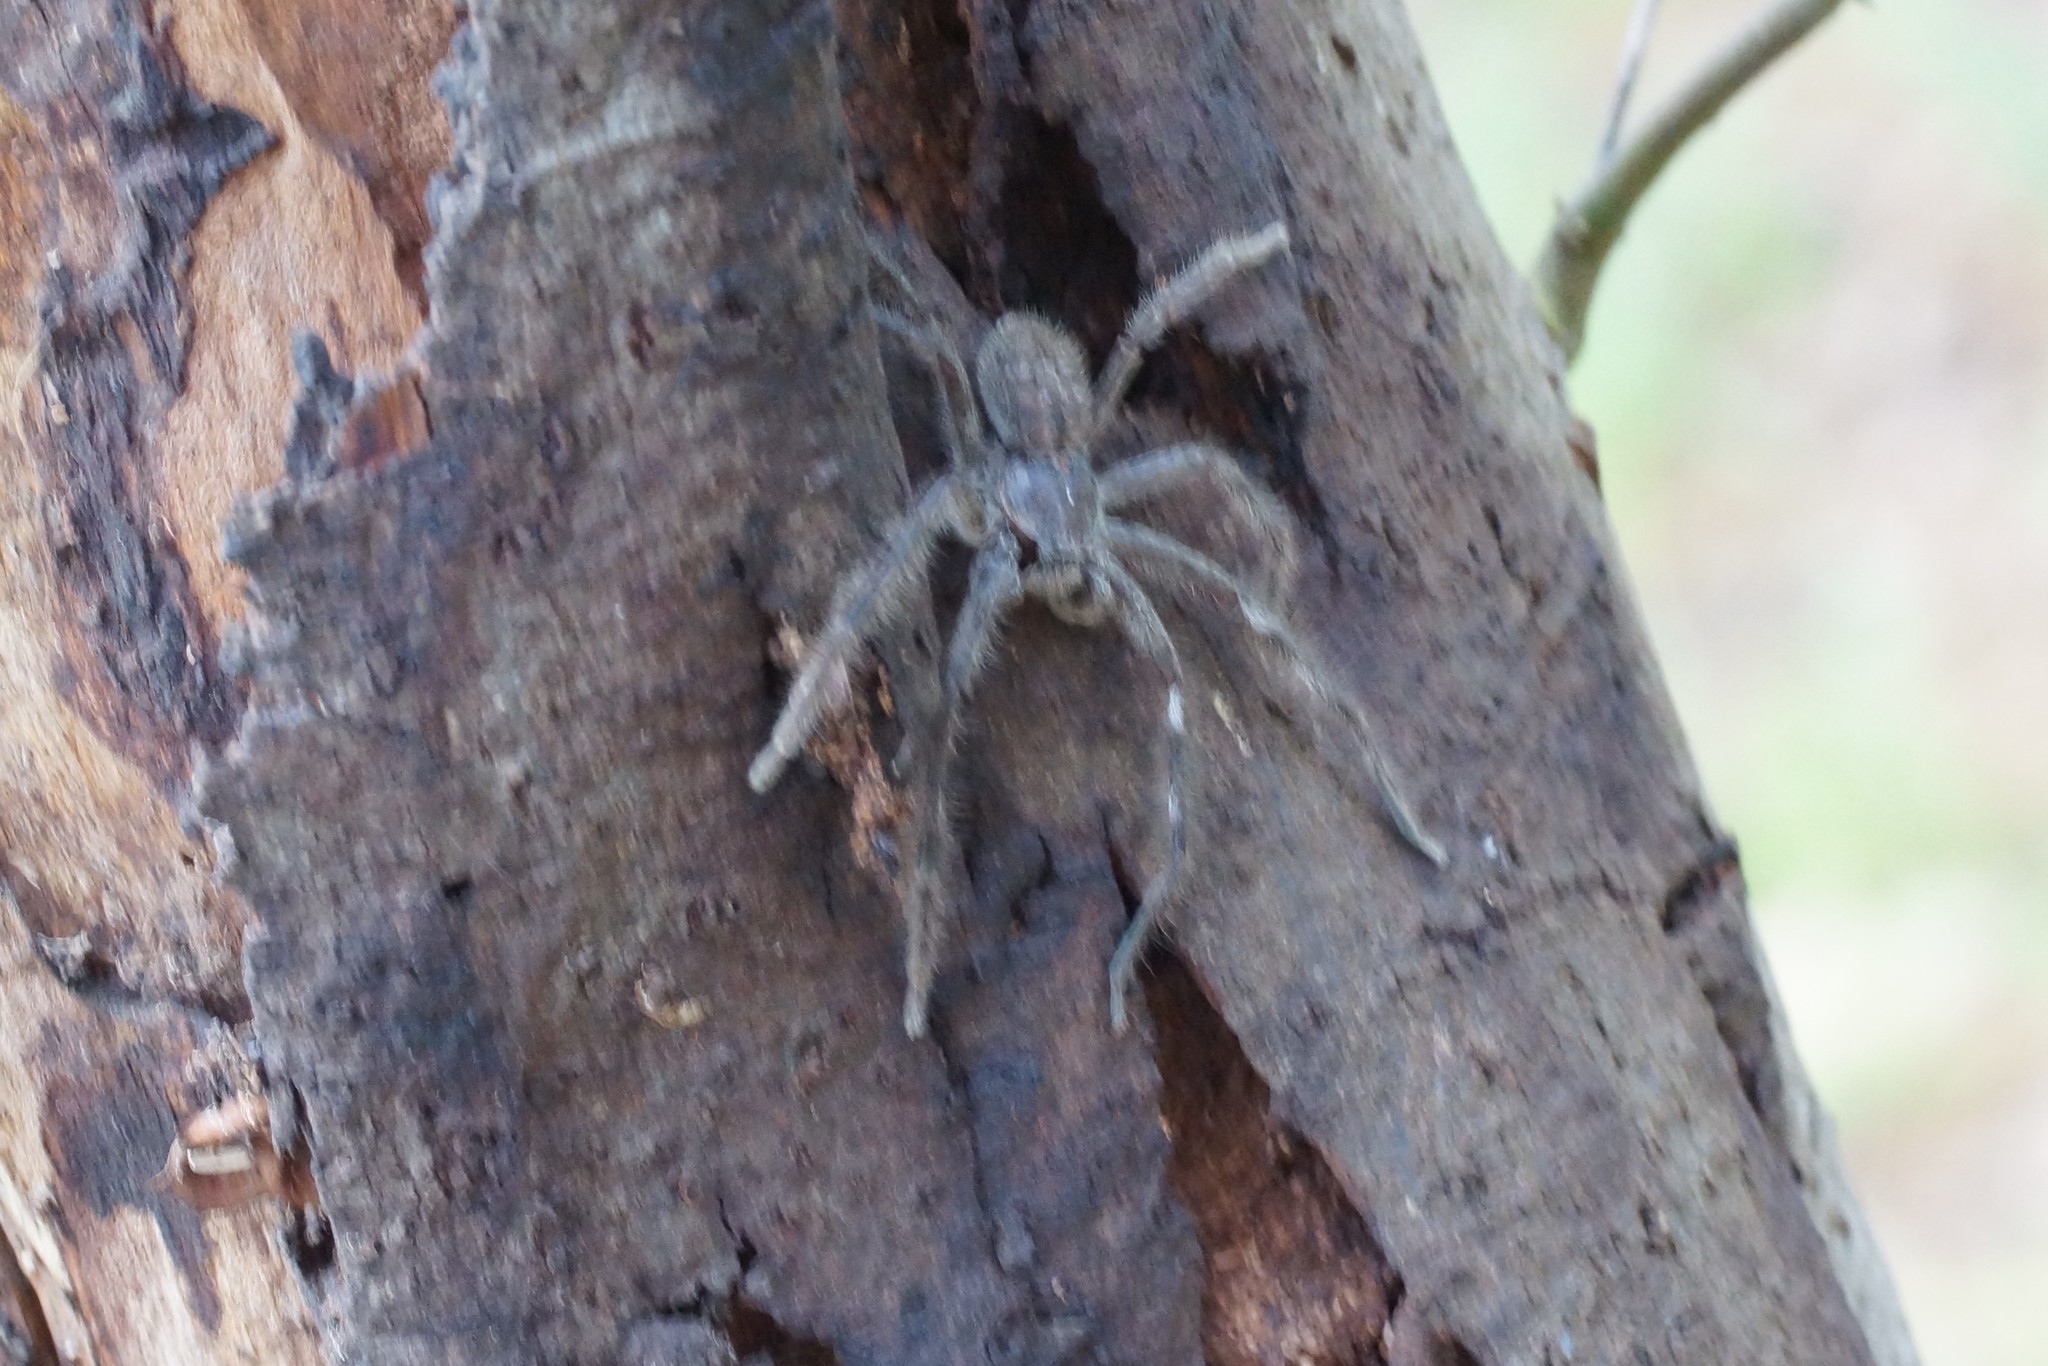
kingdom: Animalia
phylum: Arthropoda
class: Arachnida
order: Araneae
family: Sparassidae
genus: Isopedella
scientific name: Isopedella victorialis
